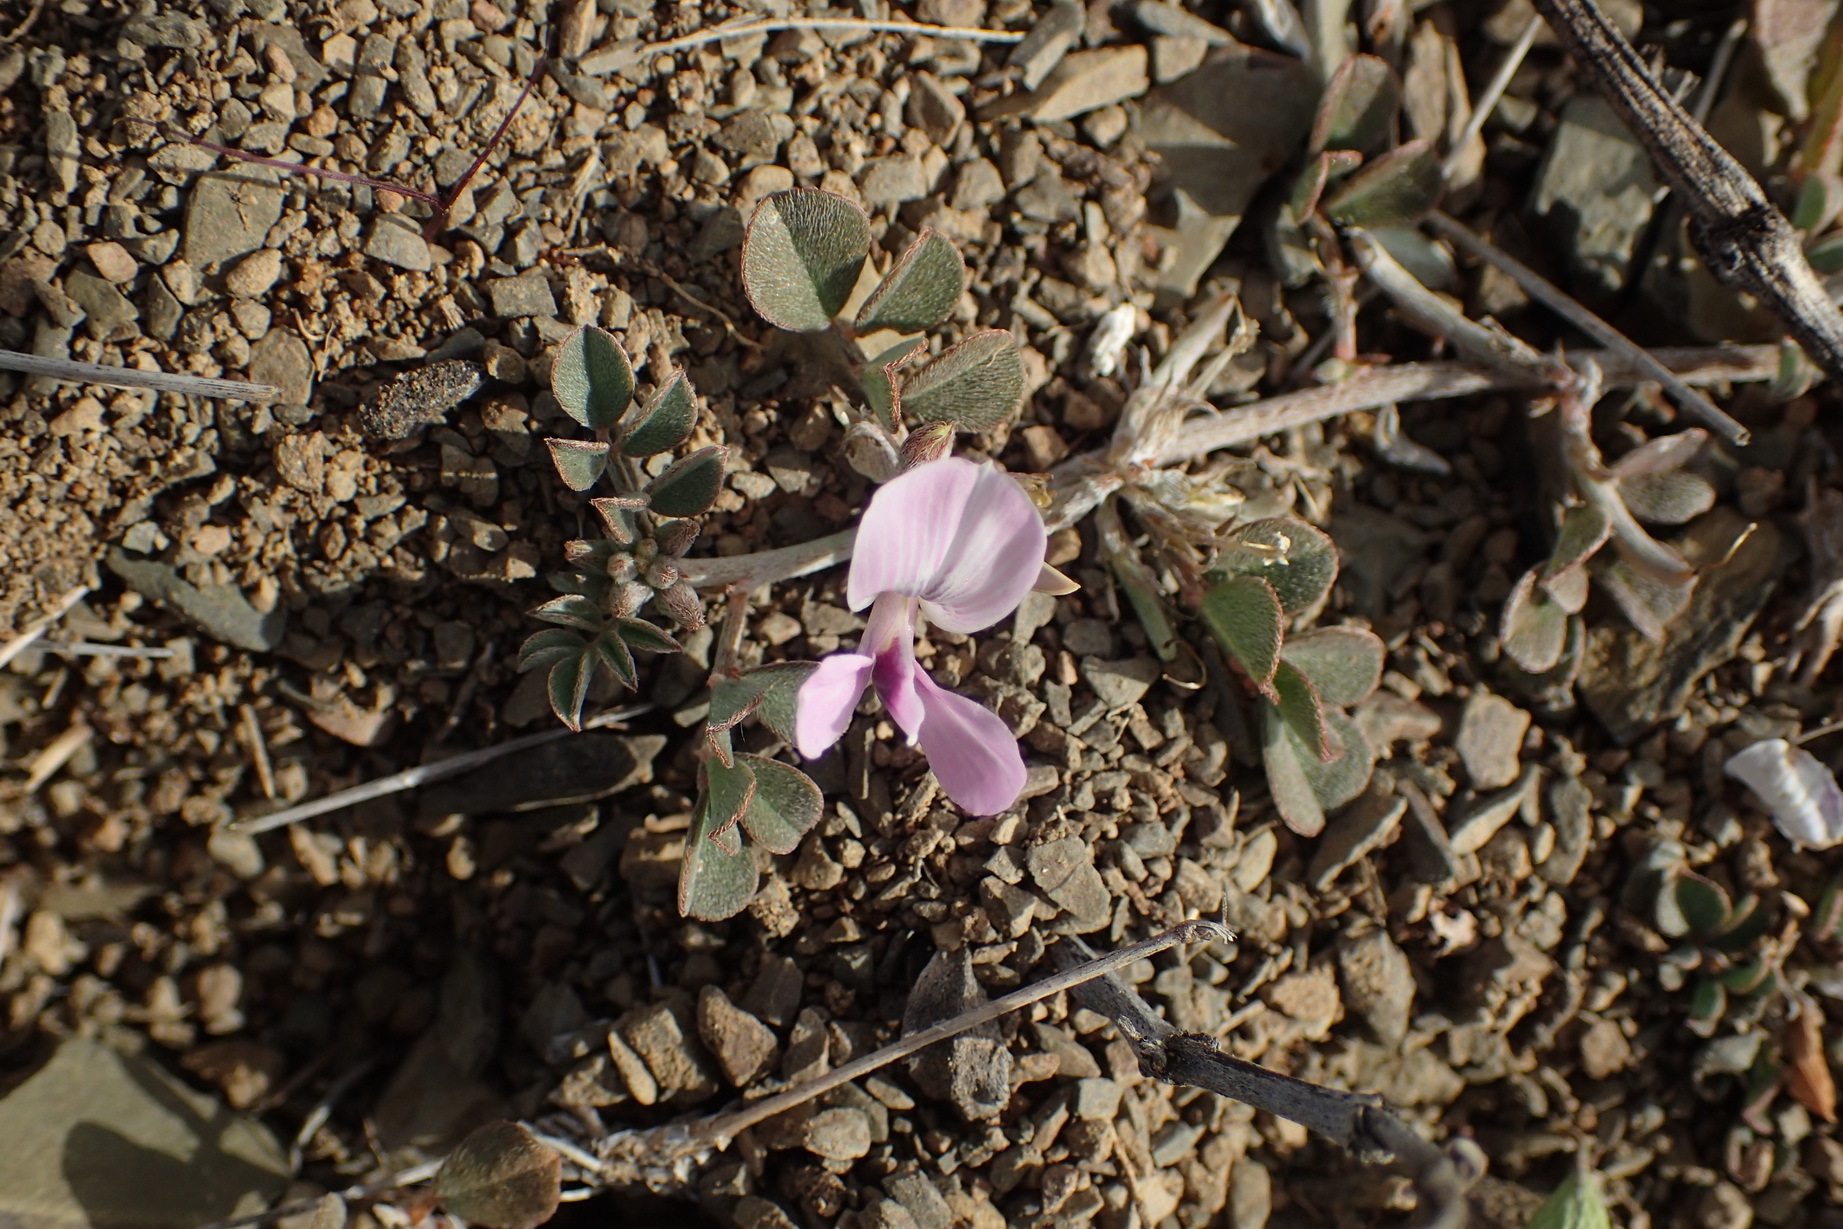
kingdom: Plantae
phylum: Tracheophyta
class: Magnoliopsida
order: Fabales
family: Fabaceae
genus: Indigastrum
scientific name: Indigastrum niveum
